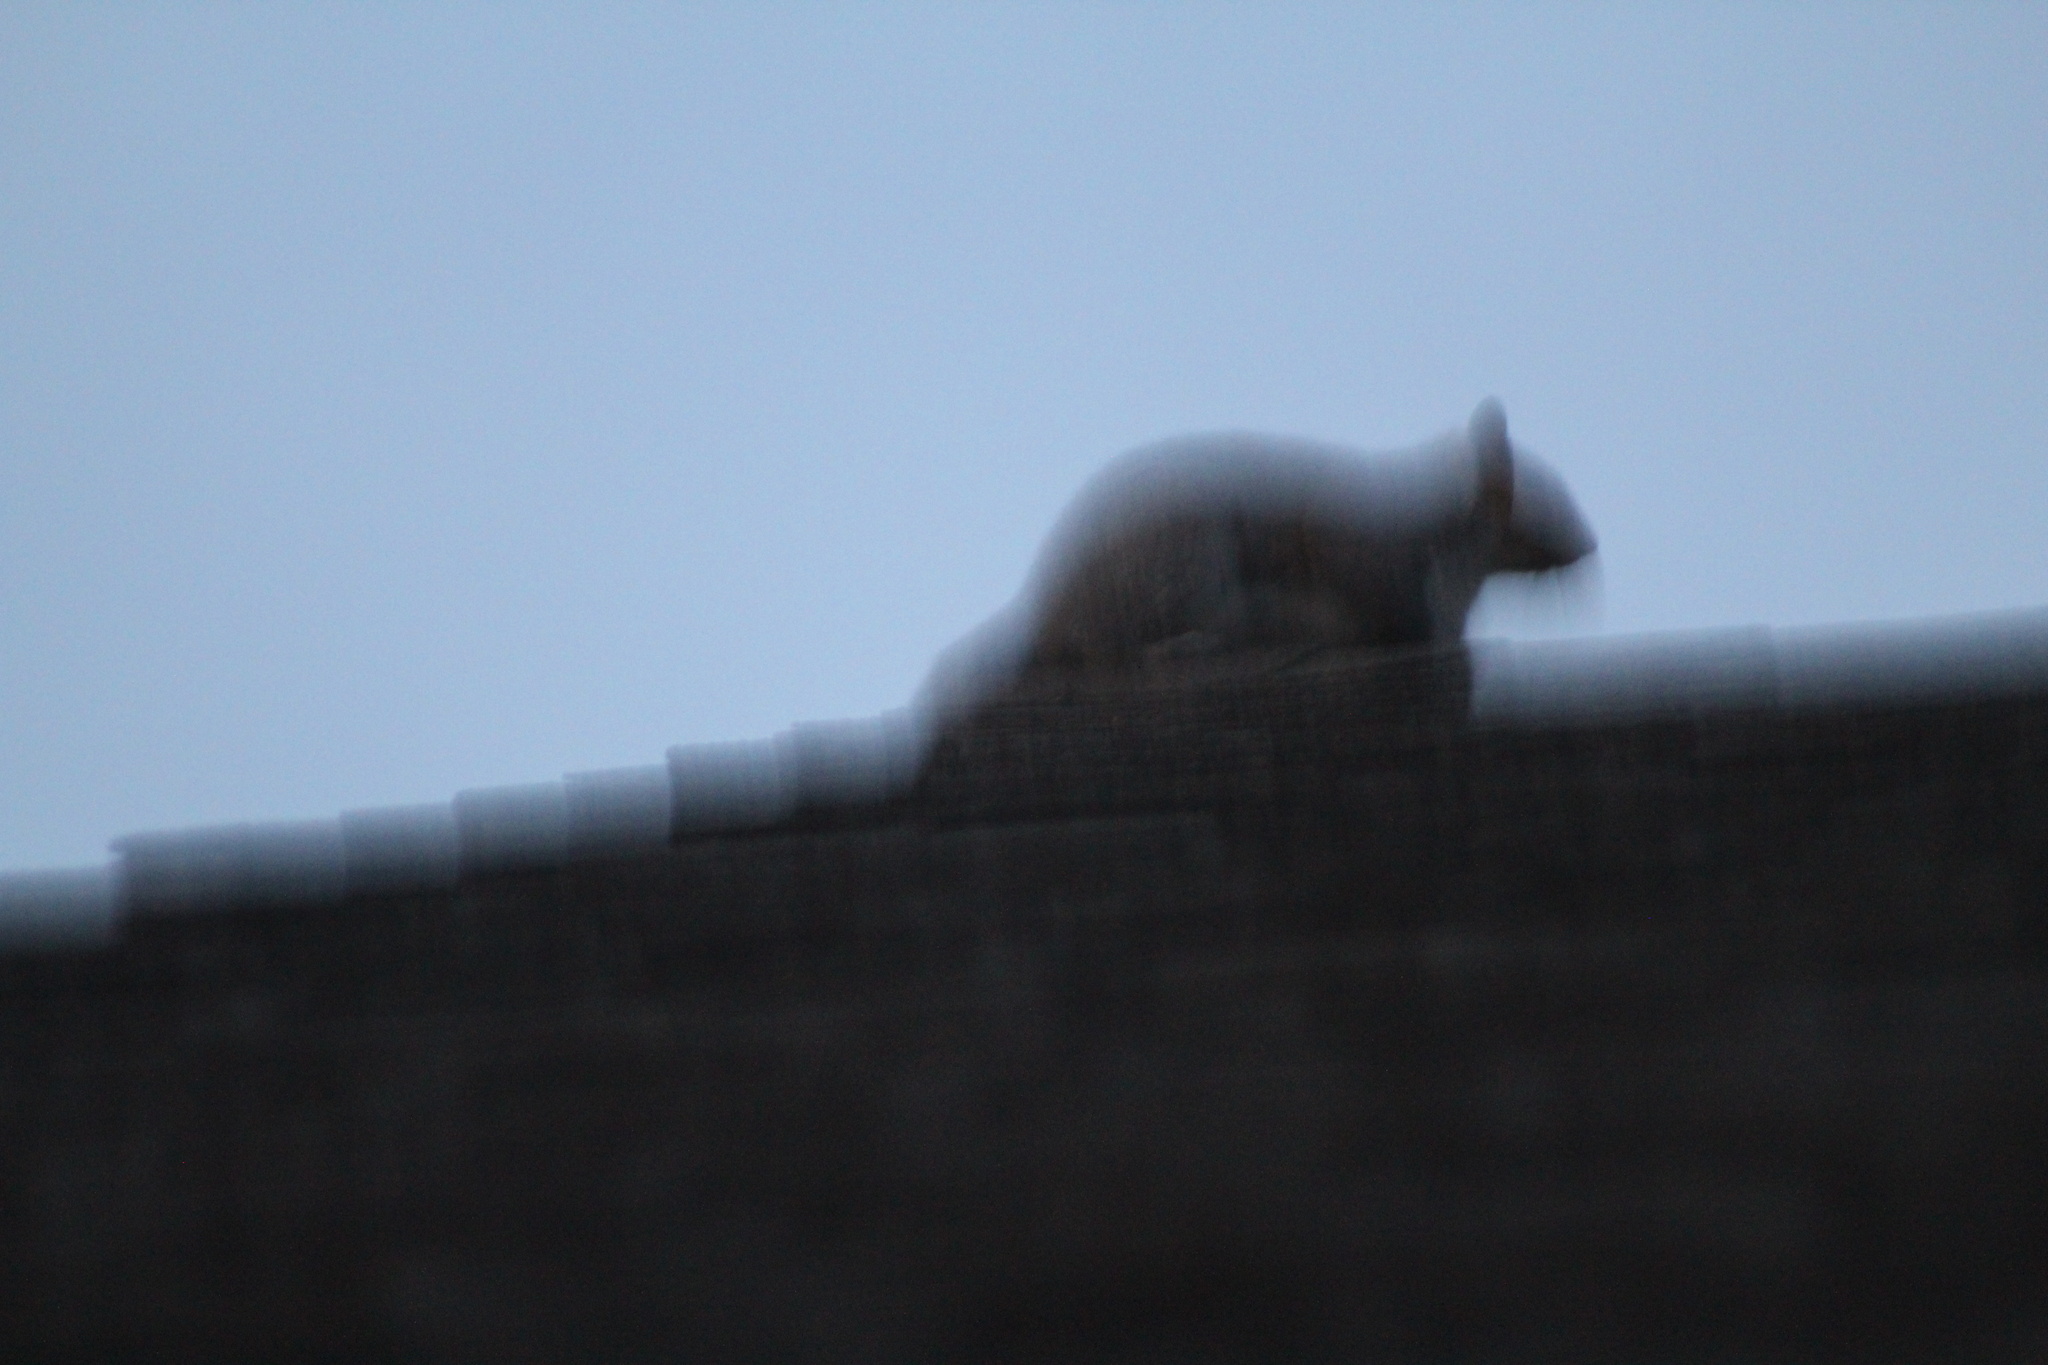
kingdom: Animalia
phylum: Chordata
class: Mammalia
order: Rodentia
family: Sciuridae
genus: Sciurus
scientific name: Sciurus carolinensis
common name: Eastern gray squirrel
